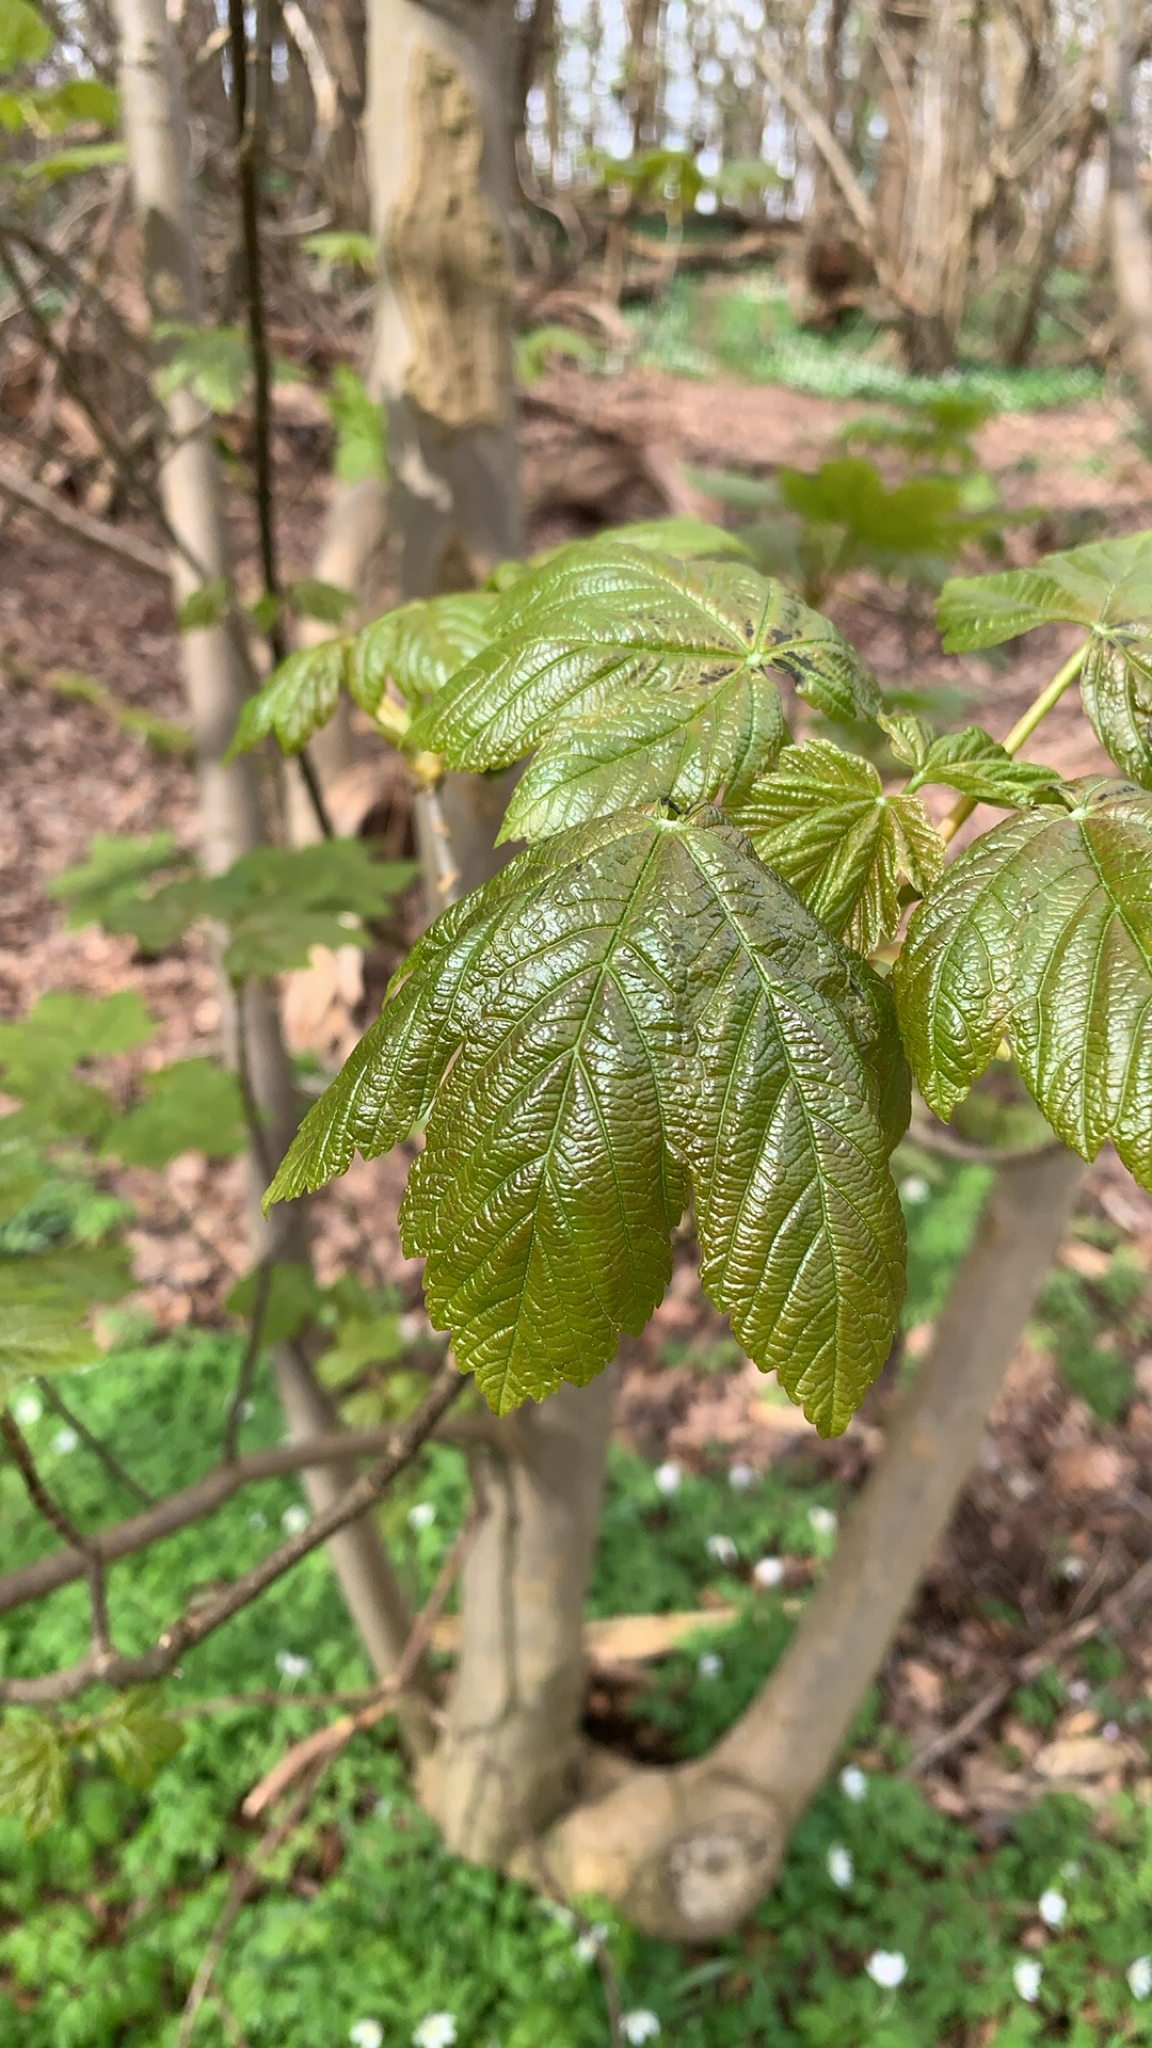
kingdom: Plantae
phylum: Tracheophyta
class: Magnoliopsida
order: Sapindales
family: Sapindaceae
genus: Acer
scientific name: Acer pseudoplatanus
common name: Sycamore
